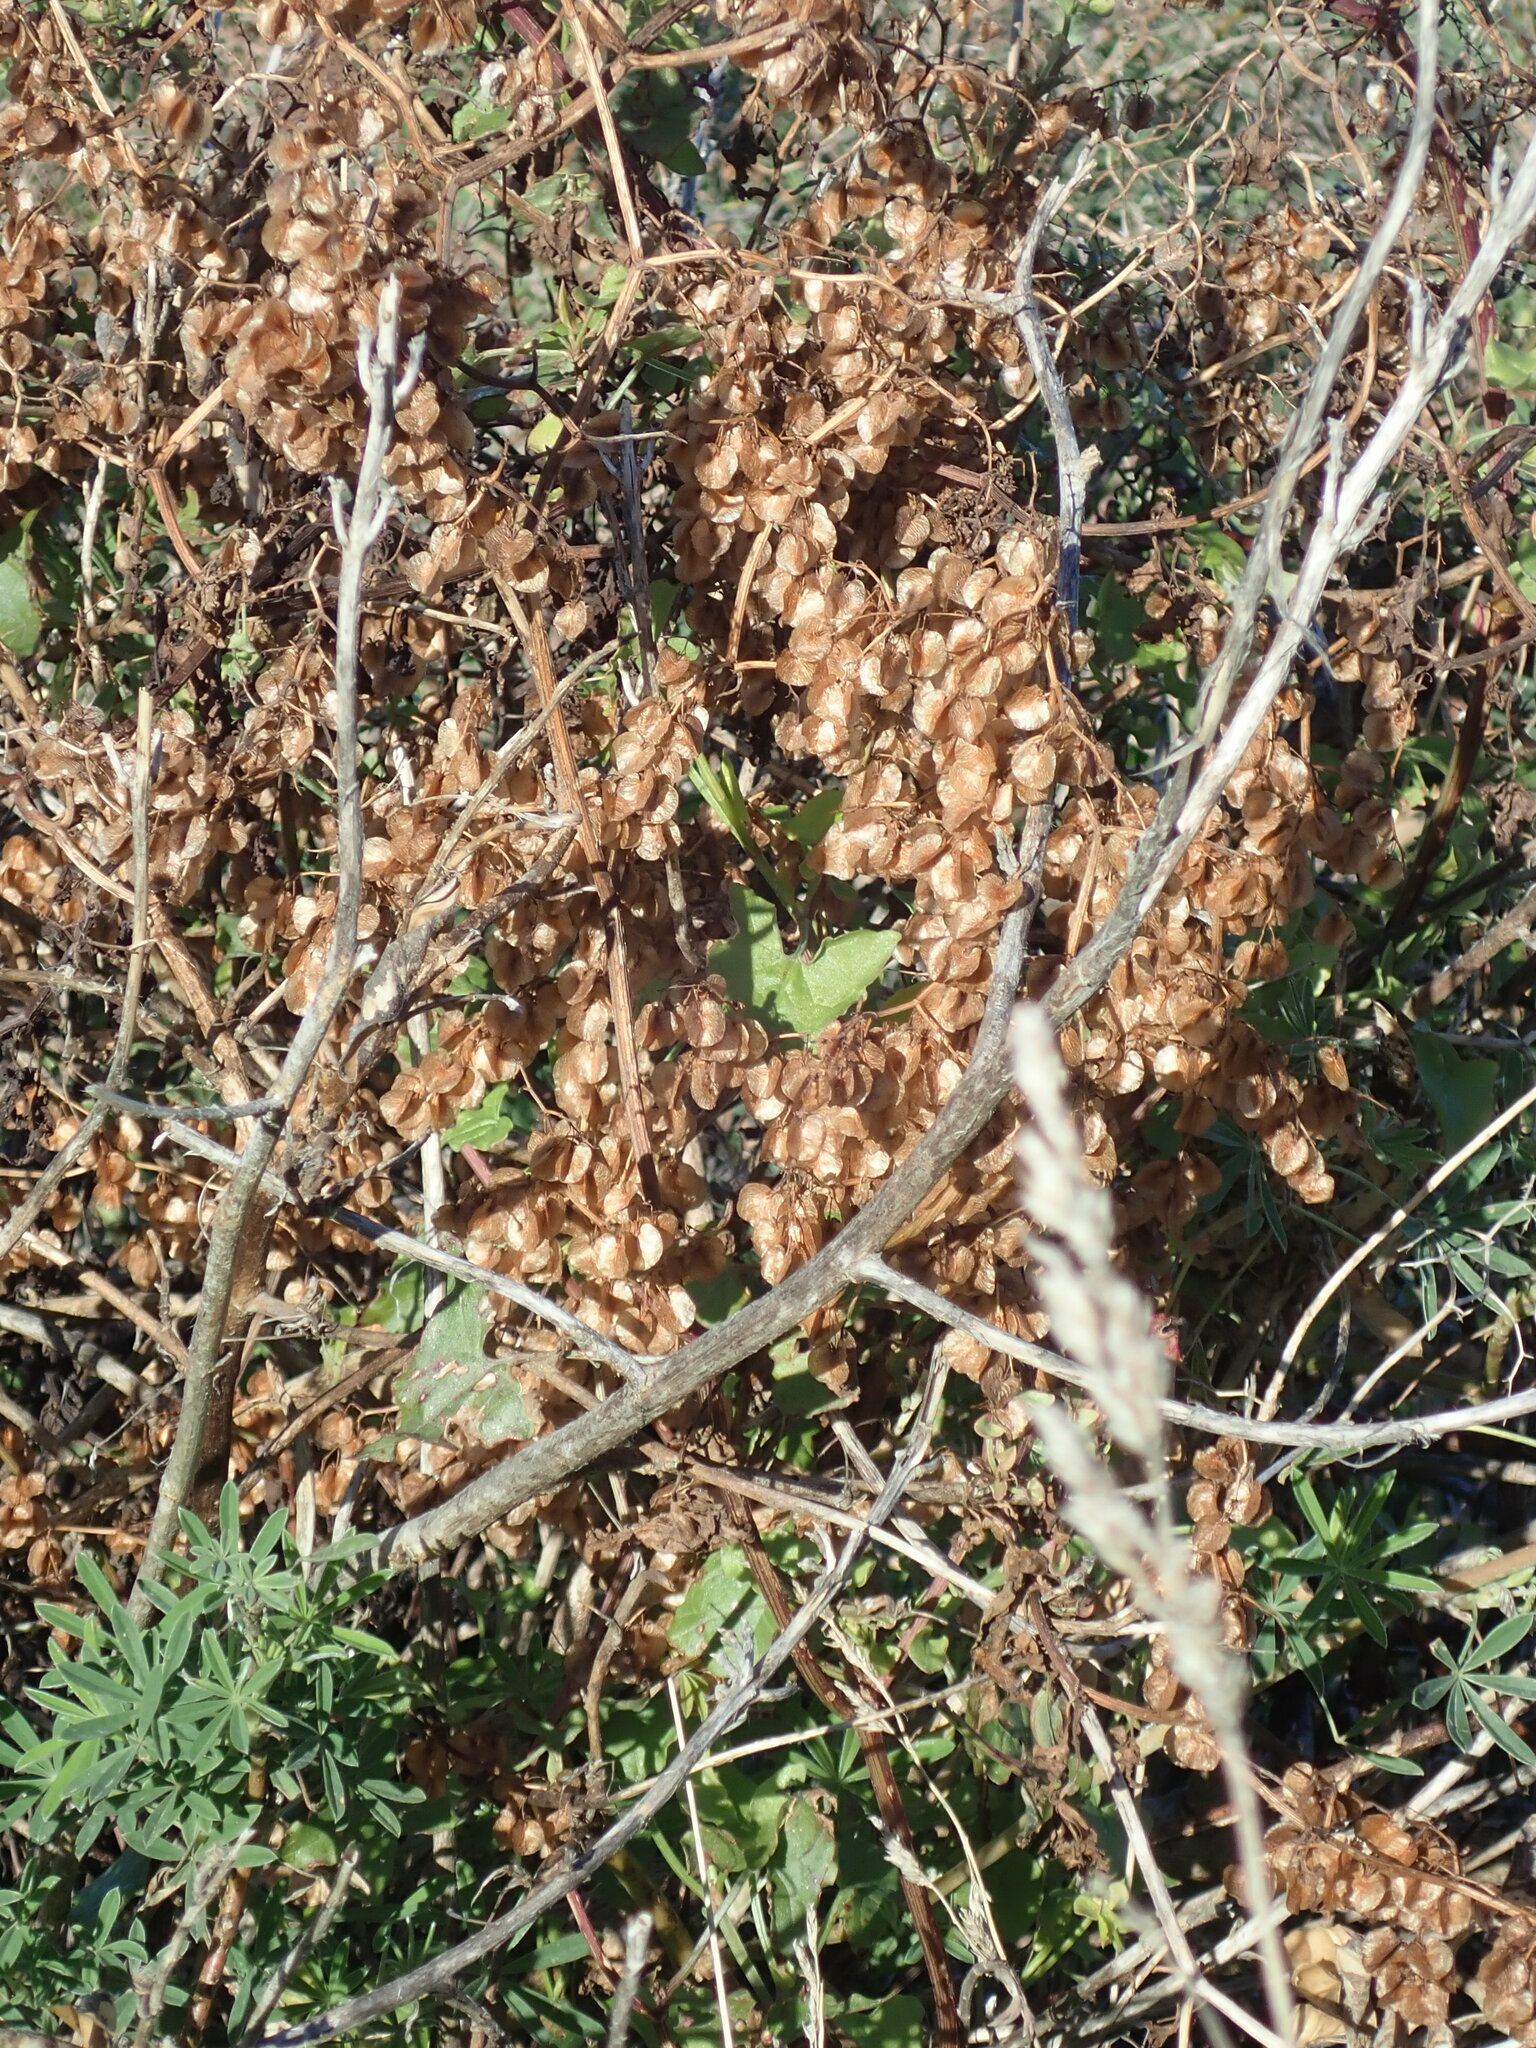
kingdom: Plantae
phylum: Tracheophyta
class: Magnoliopsida
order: Caryophyllales
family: Polygonaceae
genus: Rumex
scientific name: Rumex sagittatus
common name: Climbing dock
